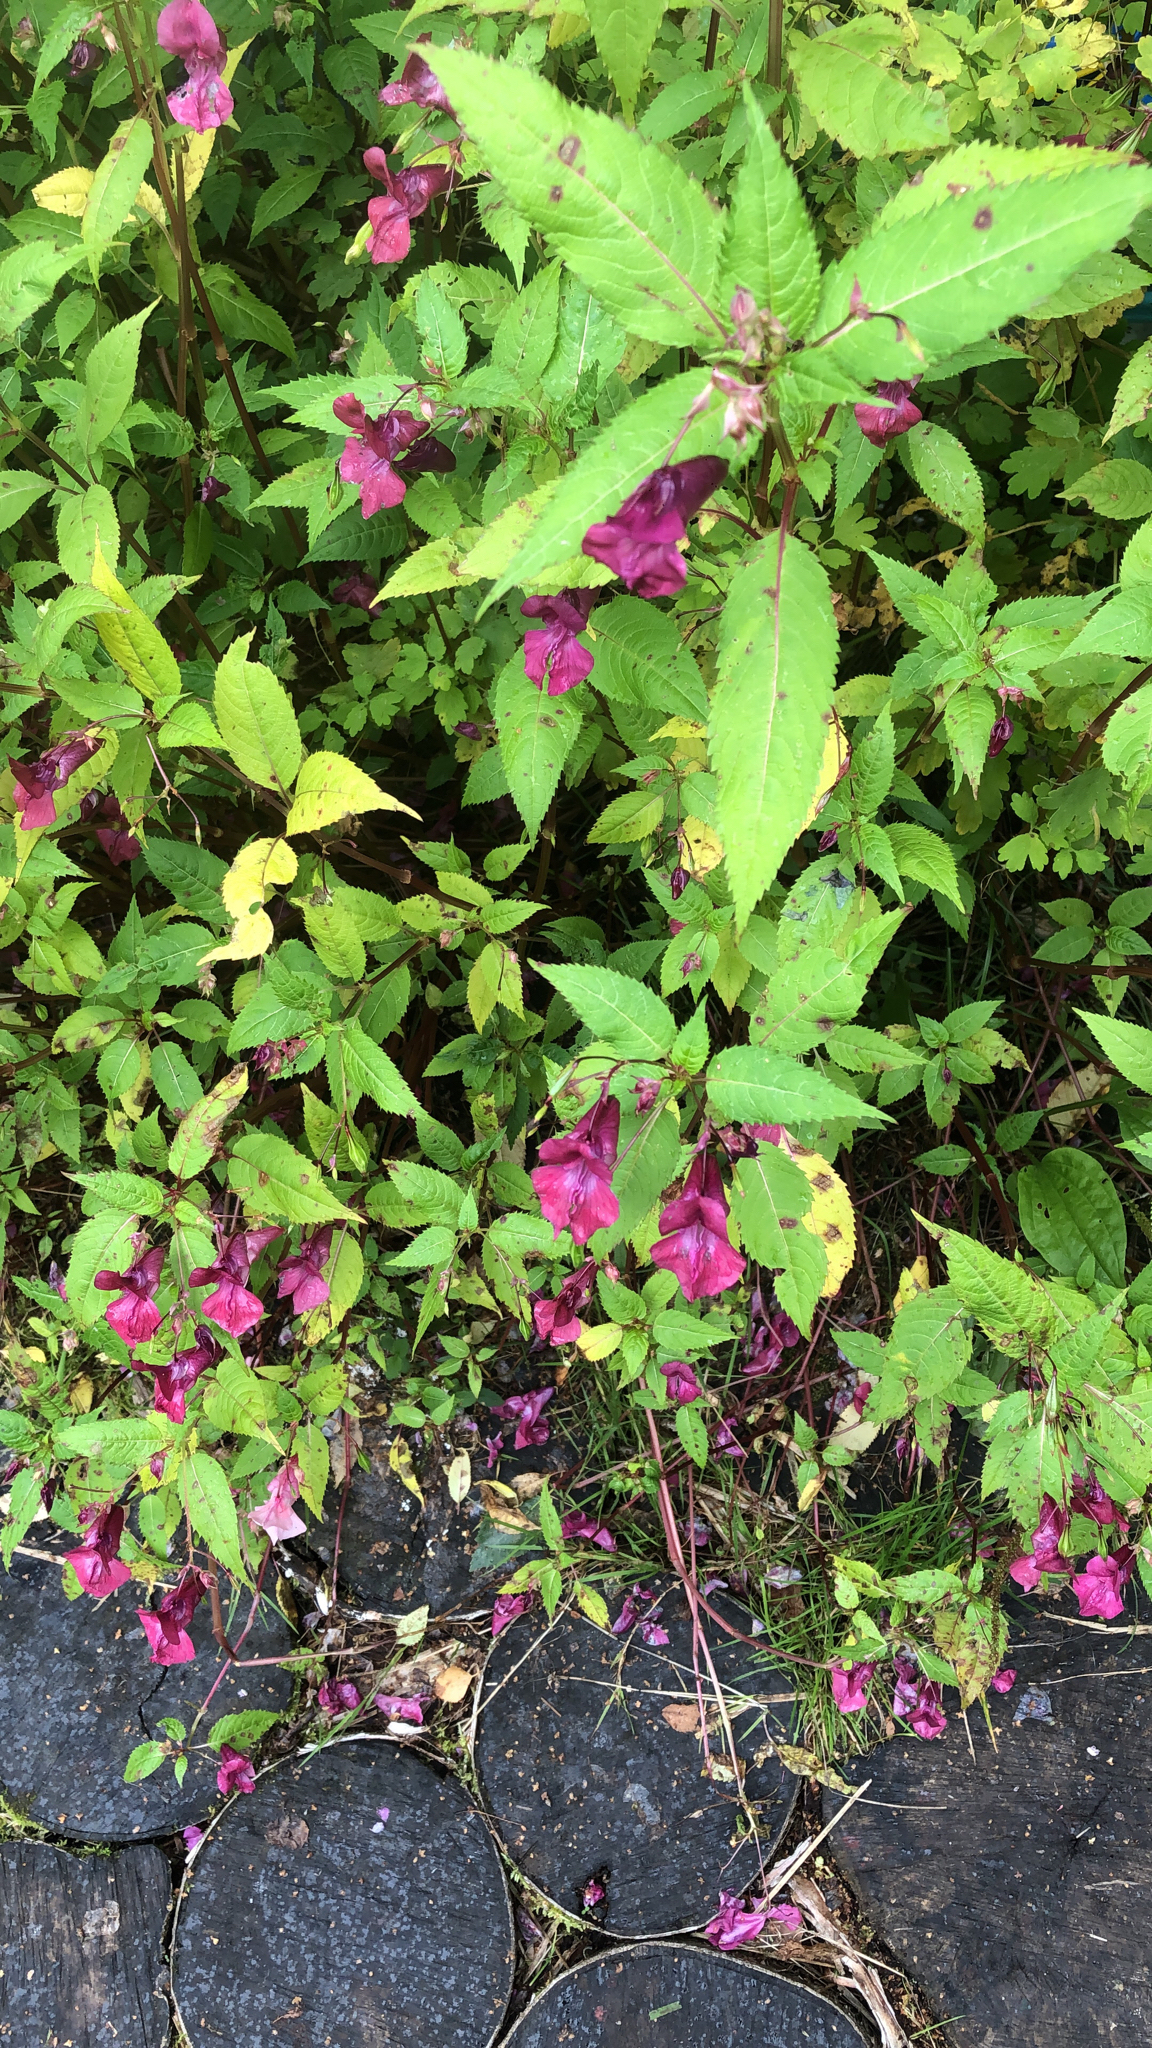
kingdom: Plantae
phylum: Tracheophyta
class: Magnoliopsida
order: Ericales
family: Balsaminaceae
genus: Impatiens
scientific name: Impatiens glandulifera
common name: Himalayan balsam
